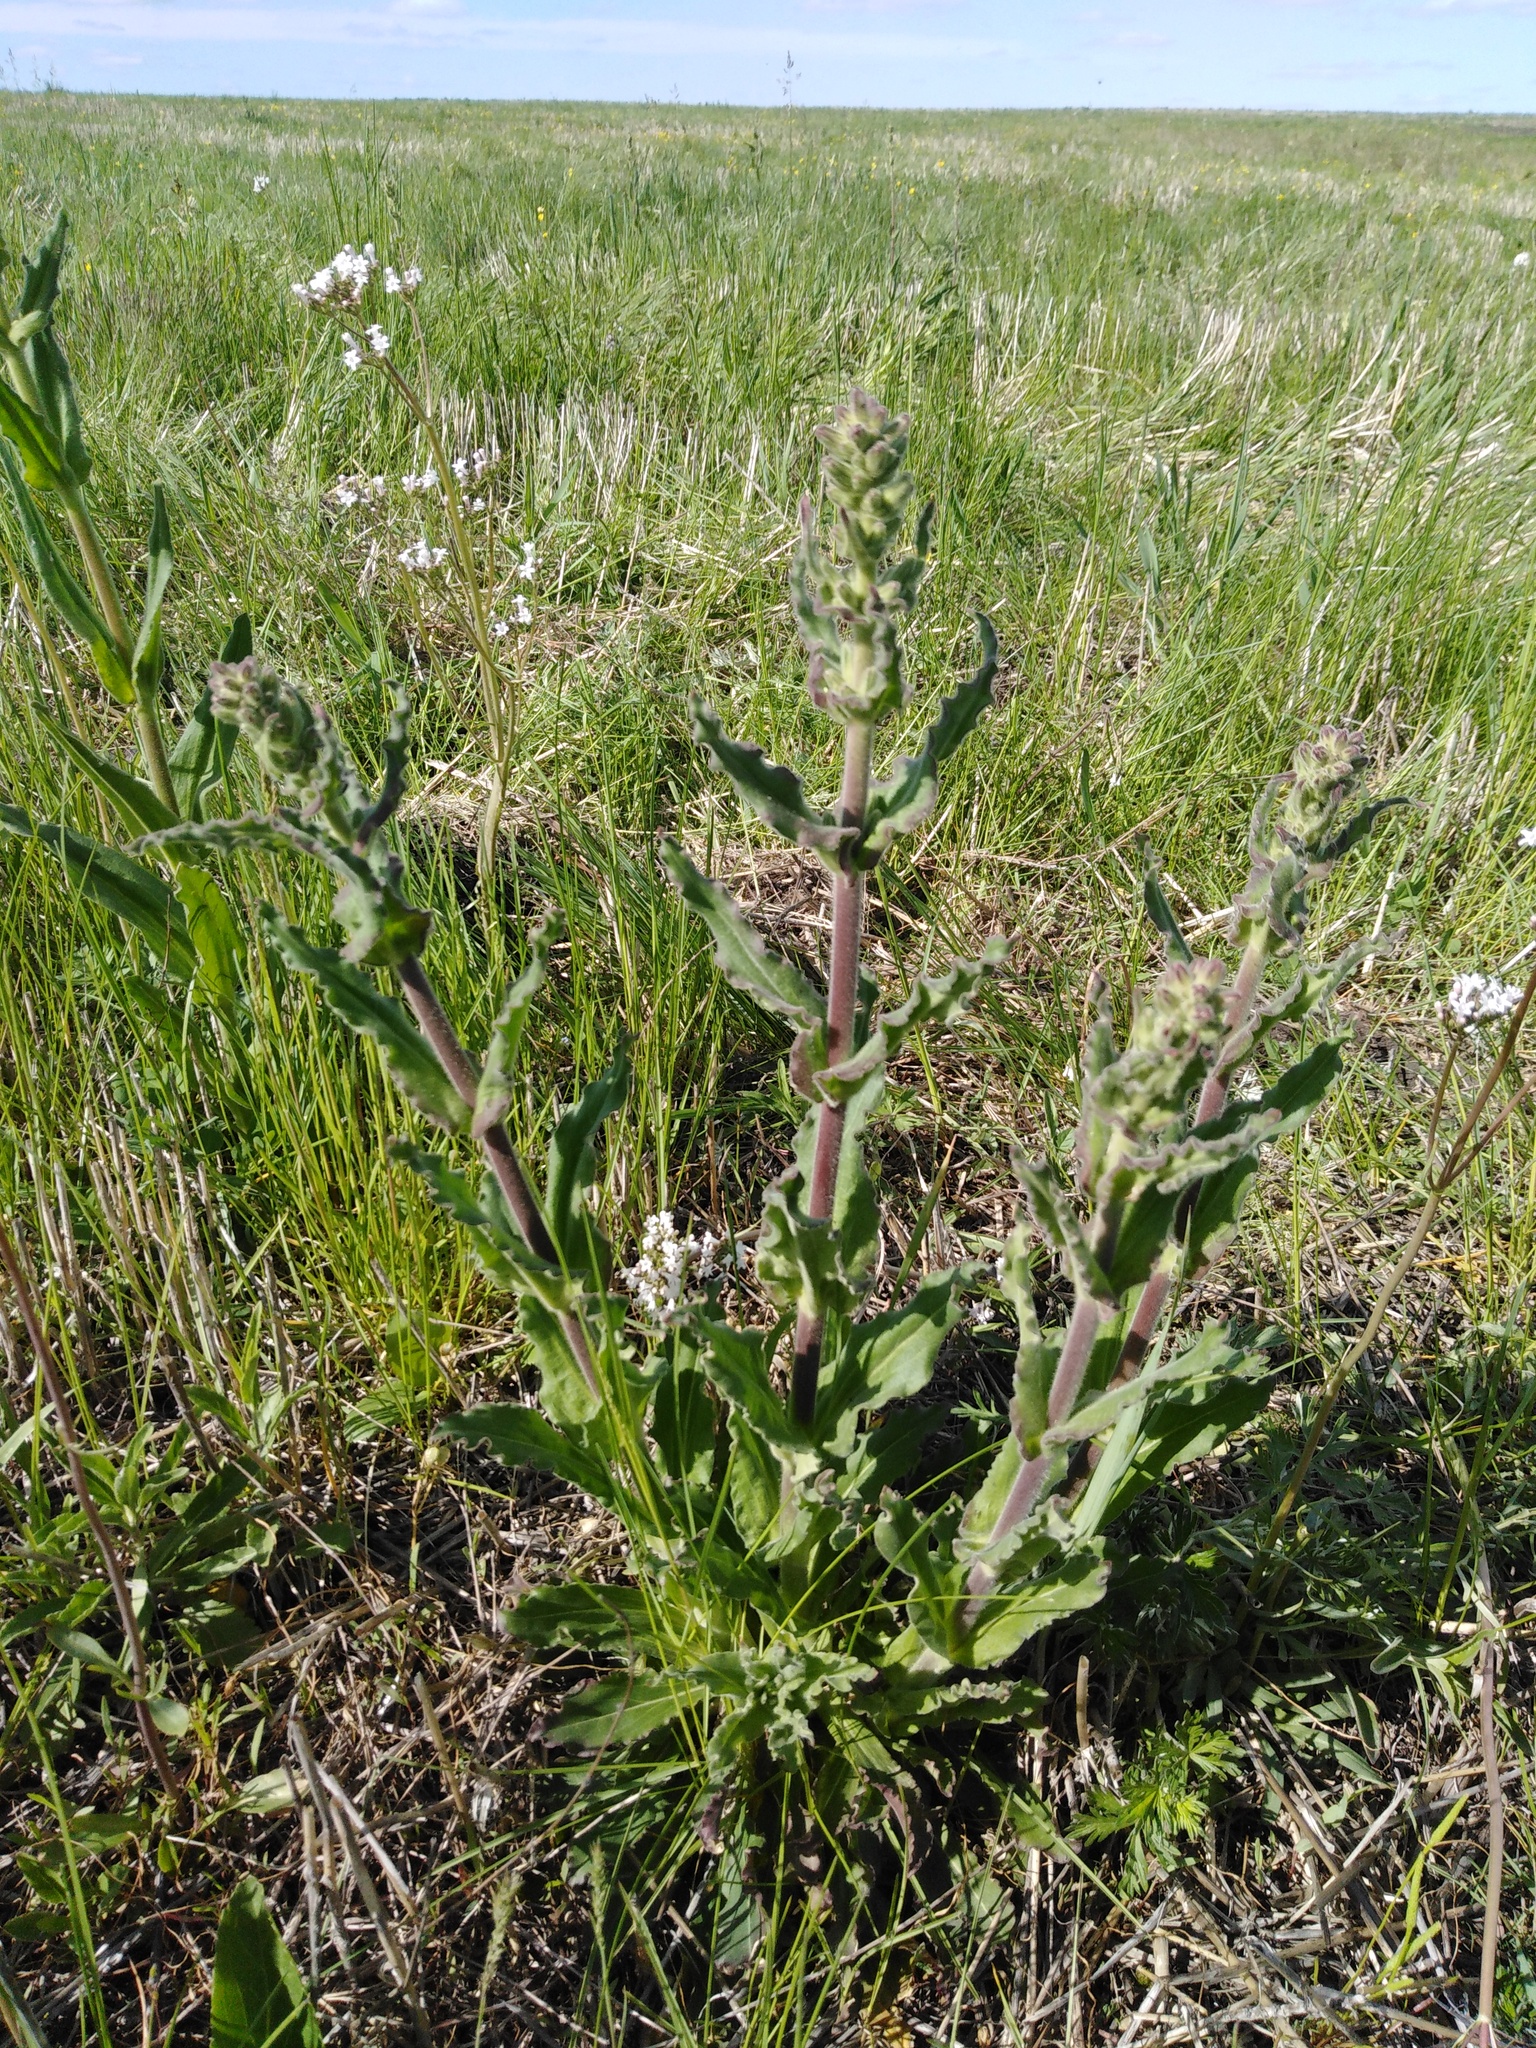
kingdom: Plantae
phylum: Tracheophyta
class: Magnoliopsida
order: Caryophyllales
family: Caryophyllaceae
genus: Silene
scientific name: Silene viscosa
